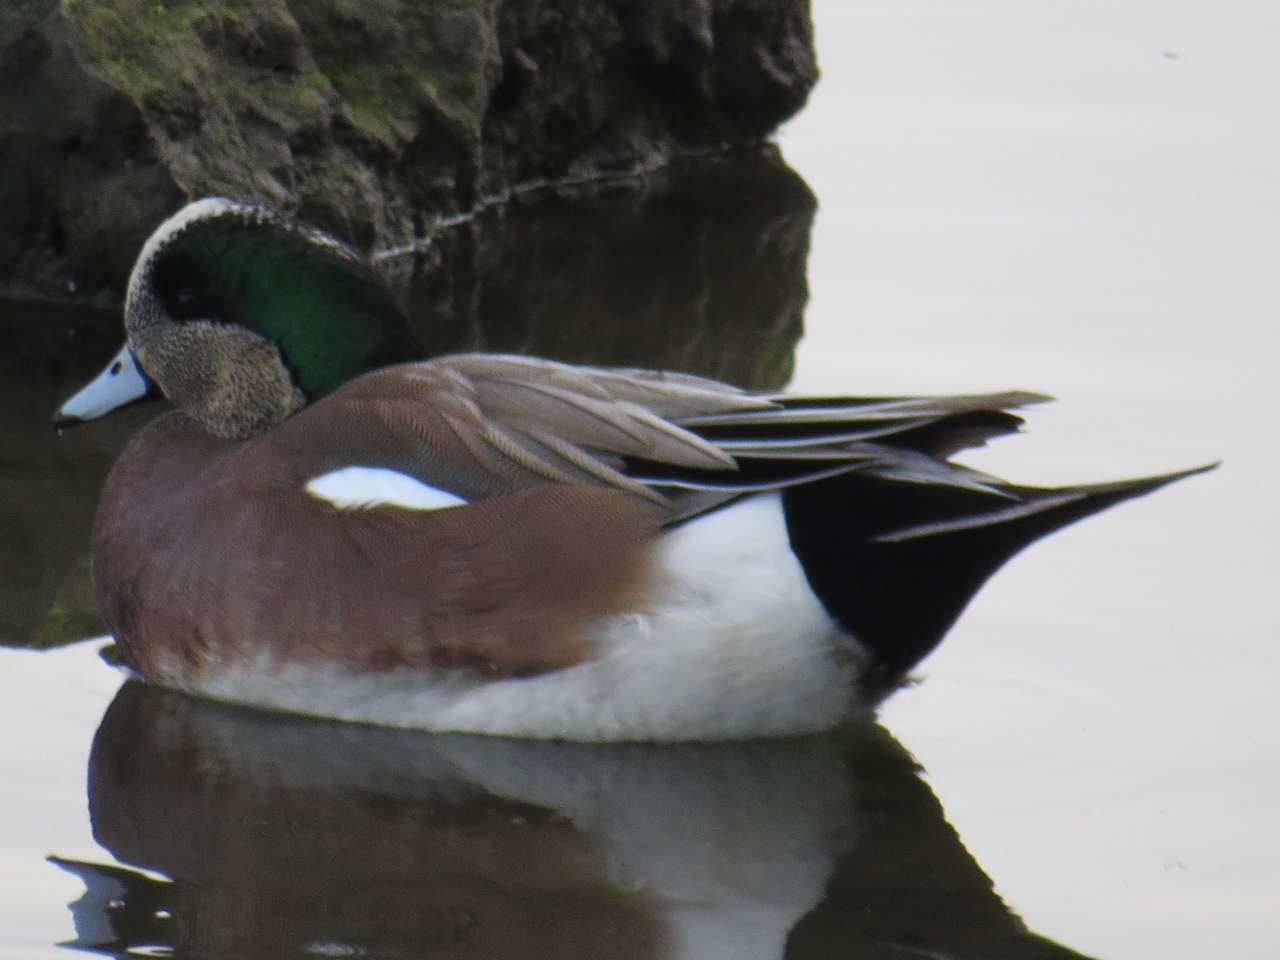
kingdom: Animalia
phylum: Chordata
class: Aves
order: Anseriformes
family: Anatidae
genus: Mareca
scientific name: Mareca americana
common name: American wigeon
